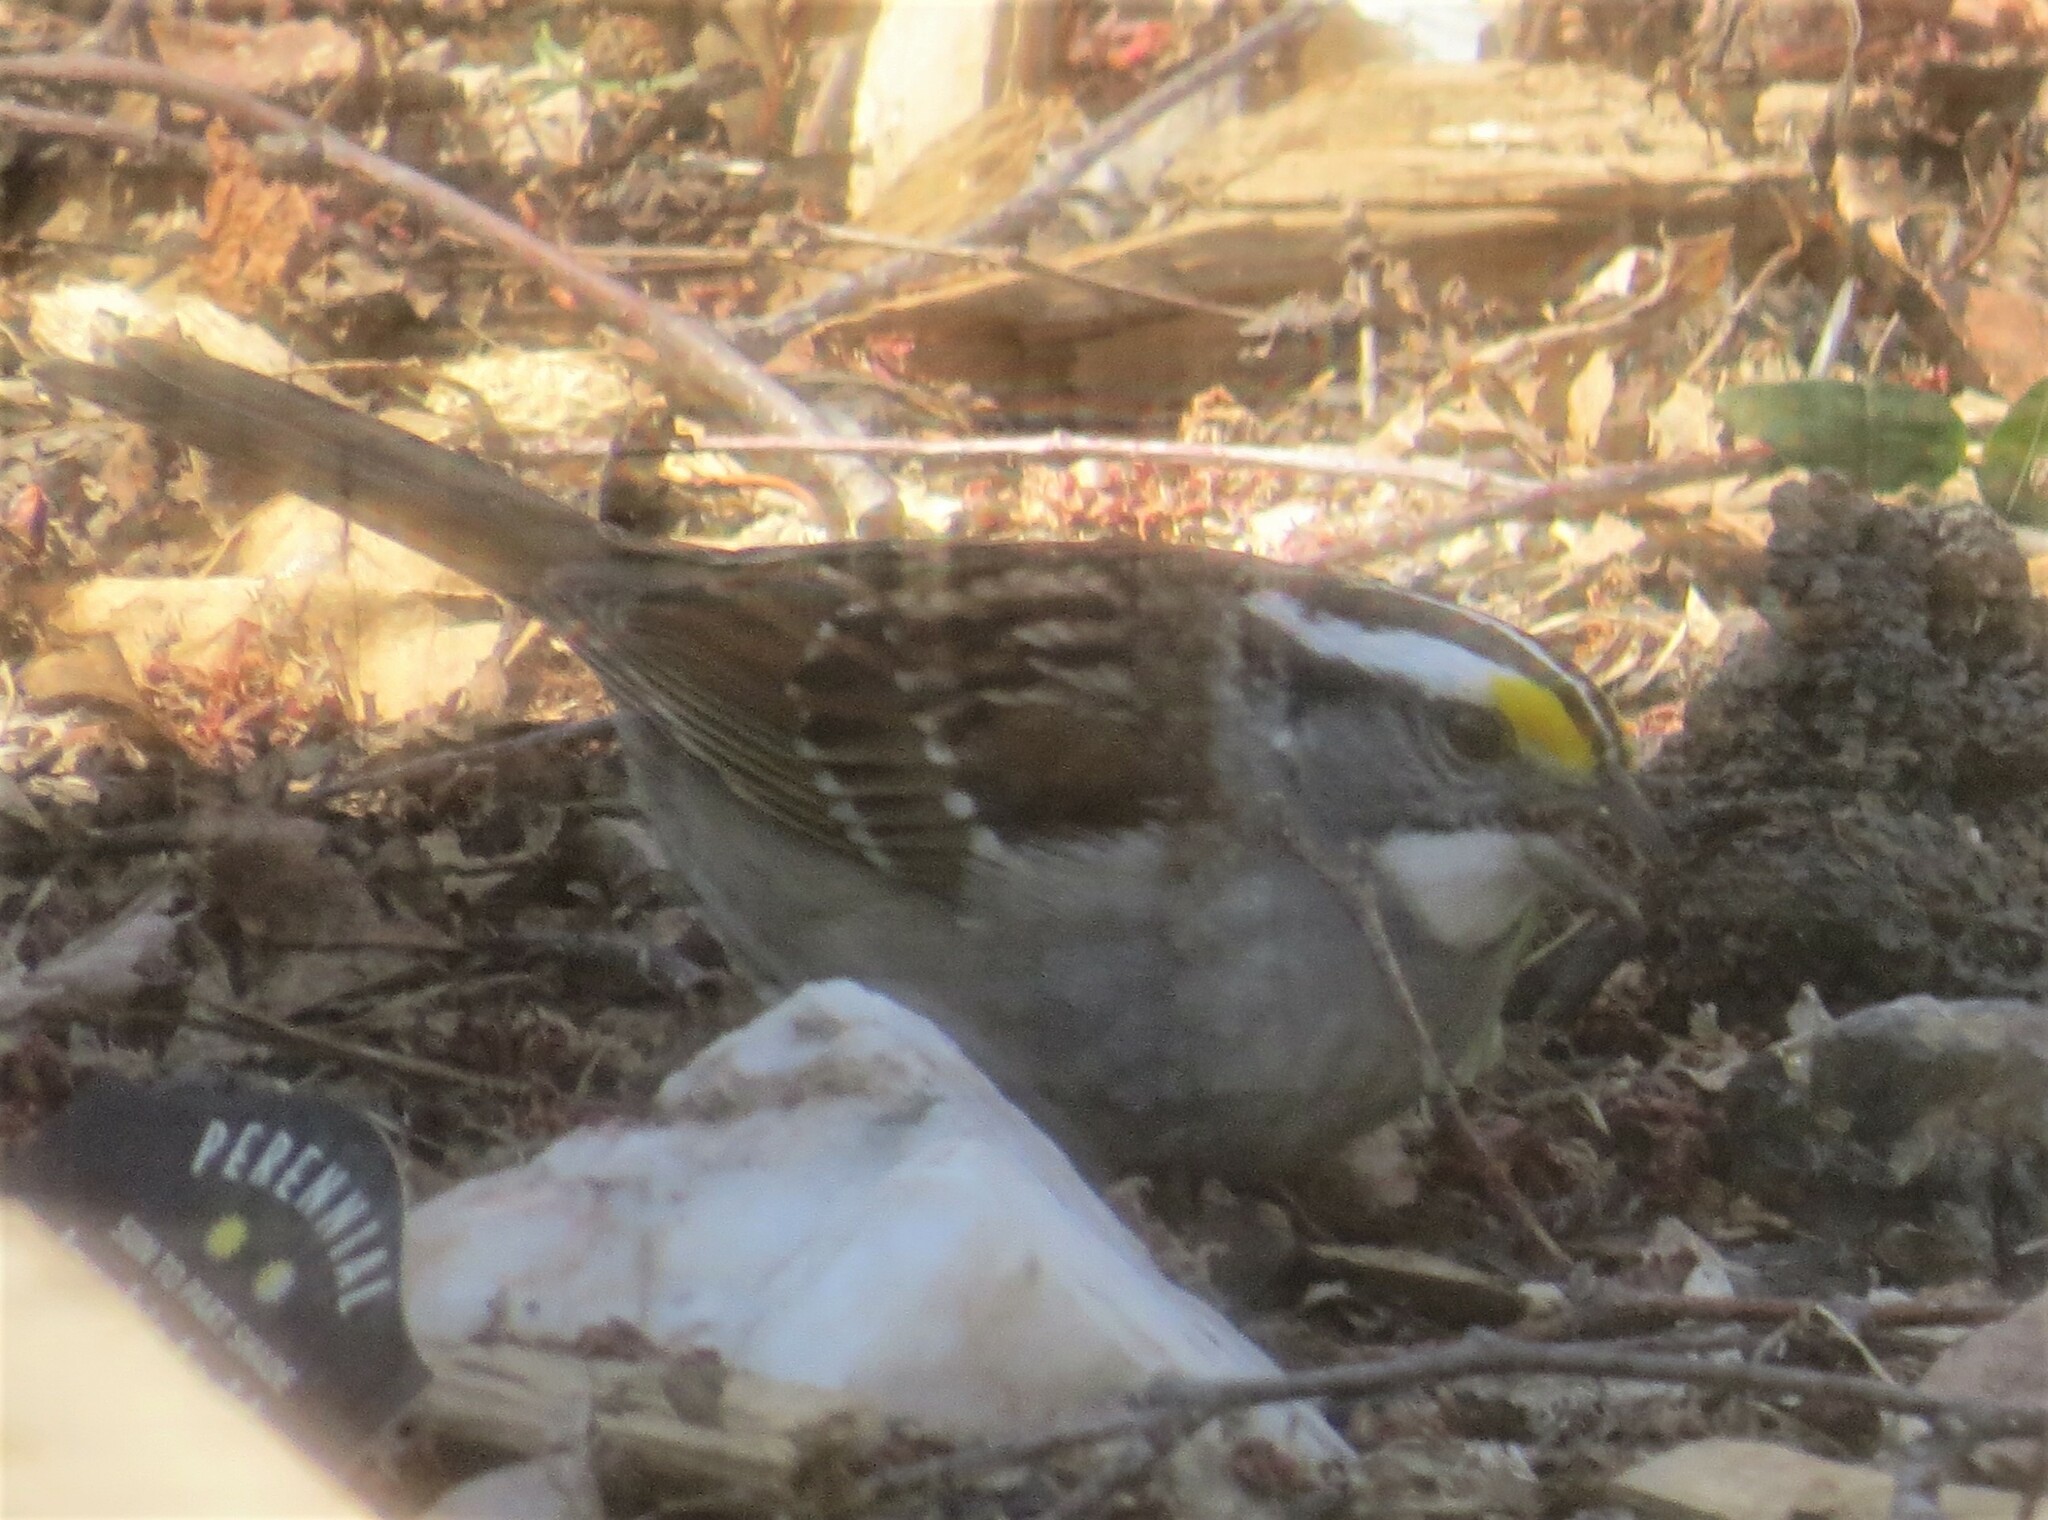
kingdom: Animalia
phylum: Chordata
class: Aves
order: Passeriformes
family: Passerellidae
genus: Zonotrichia
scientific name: Zonotrichia albicollis
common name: White-throated sparrow
